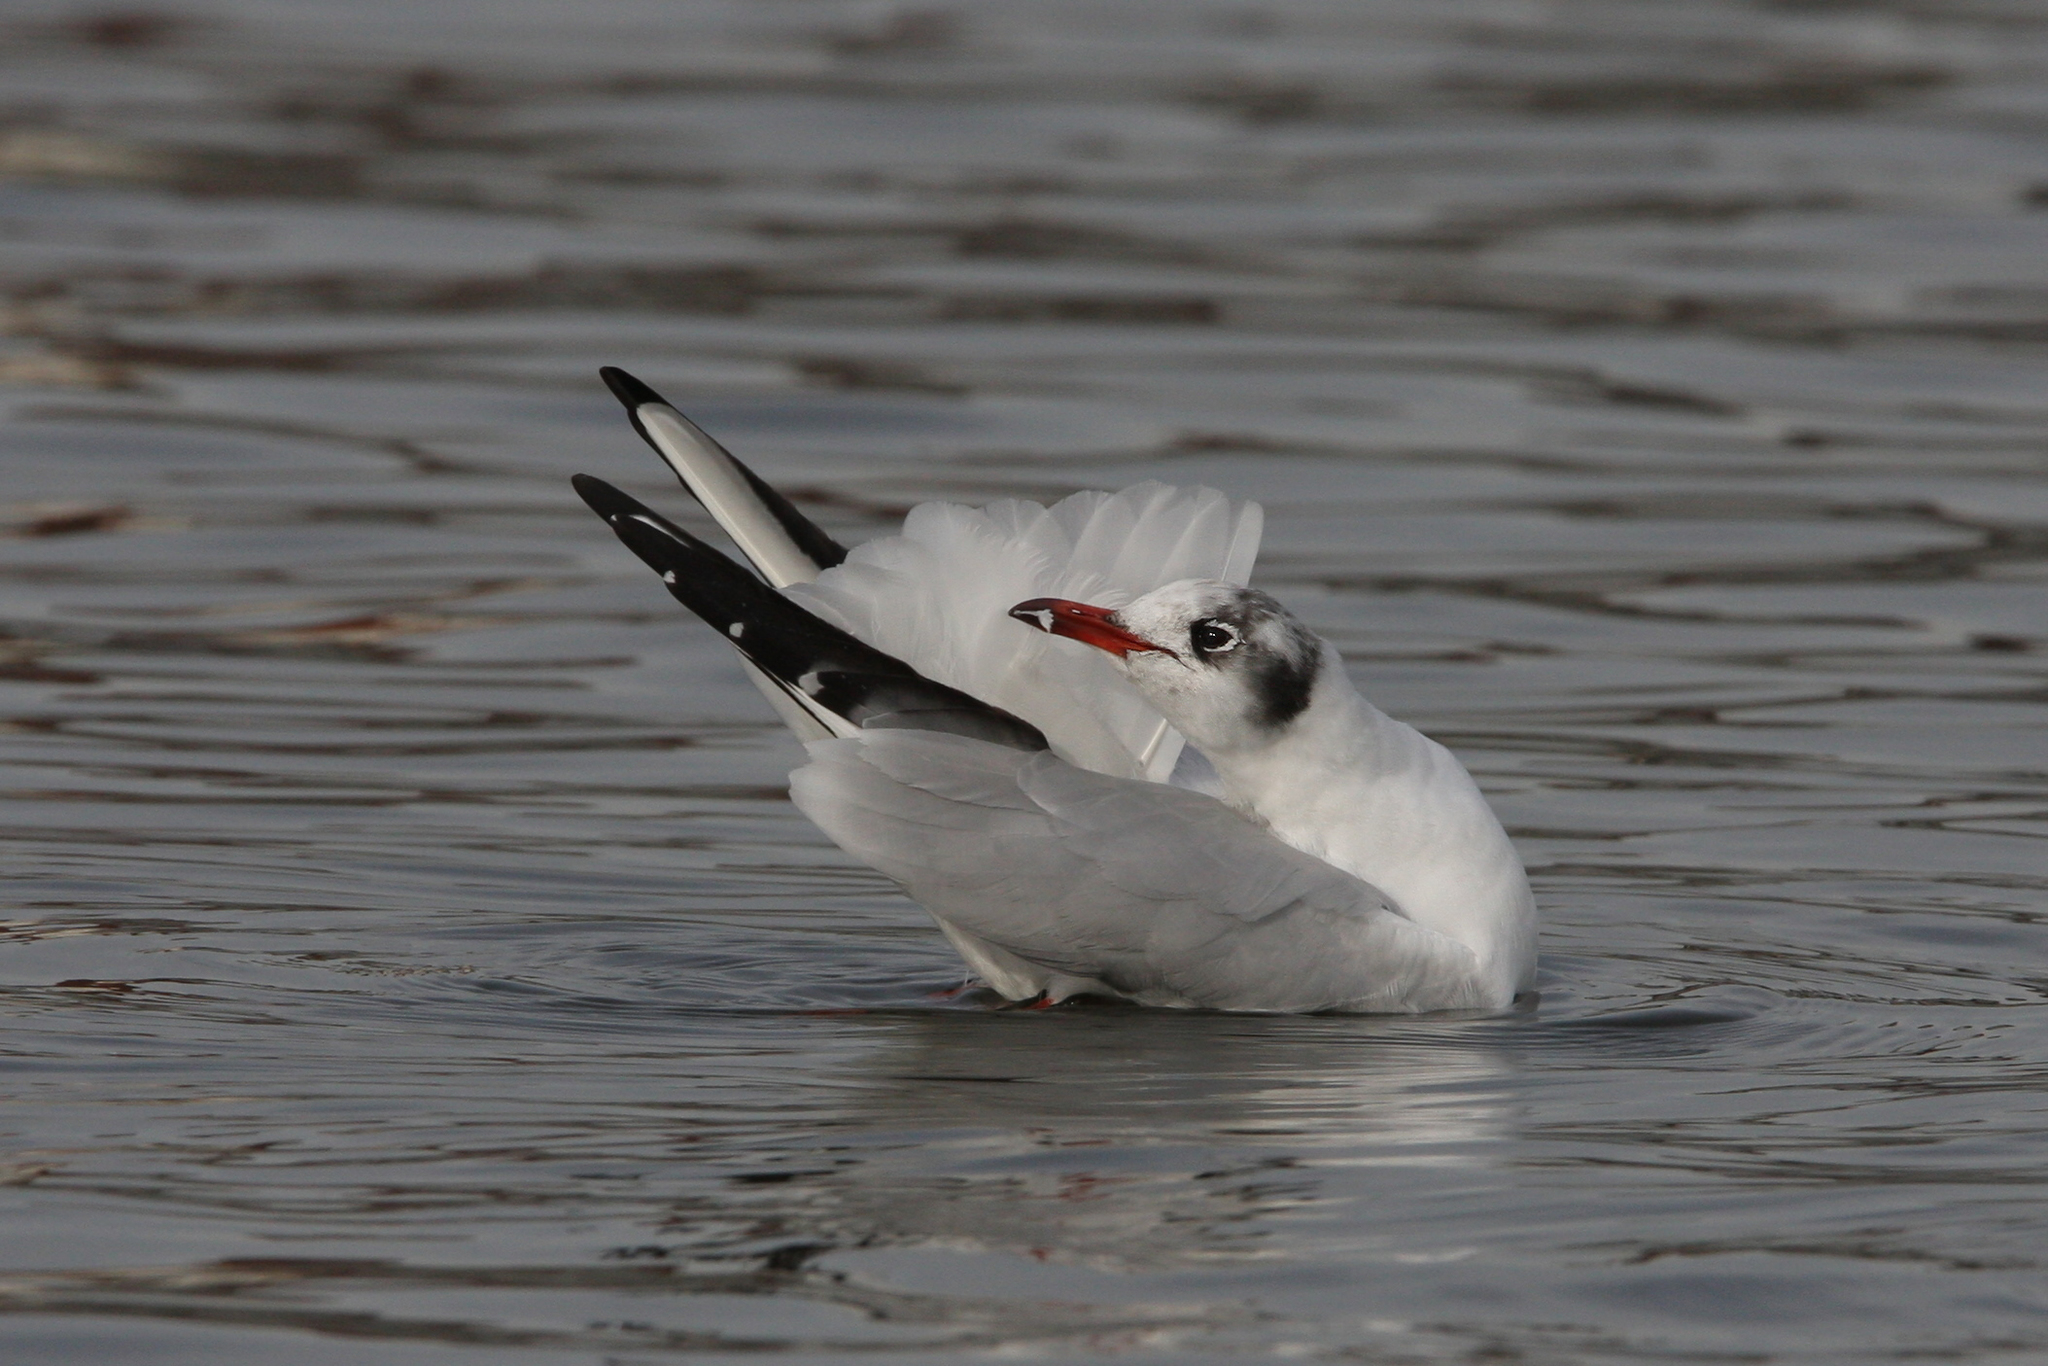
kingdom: Animalia
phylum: Chordata
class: Aves
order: Charadriiformes
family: Laridae
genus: Chroicocephalus
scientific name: Chroicocephalus ridibundus
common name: Black-headed gull
